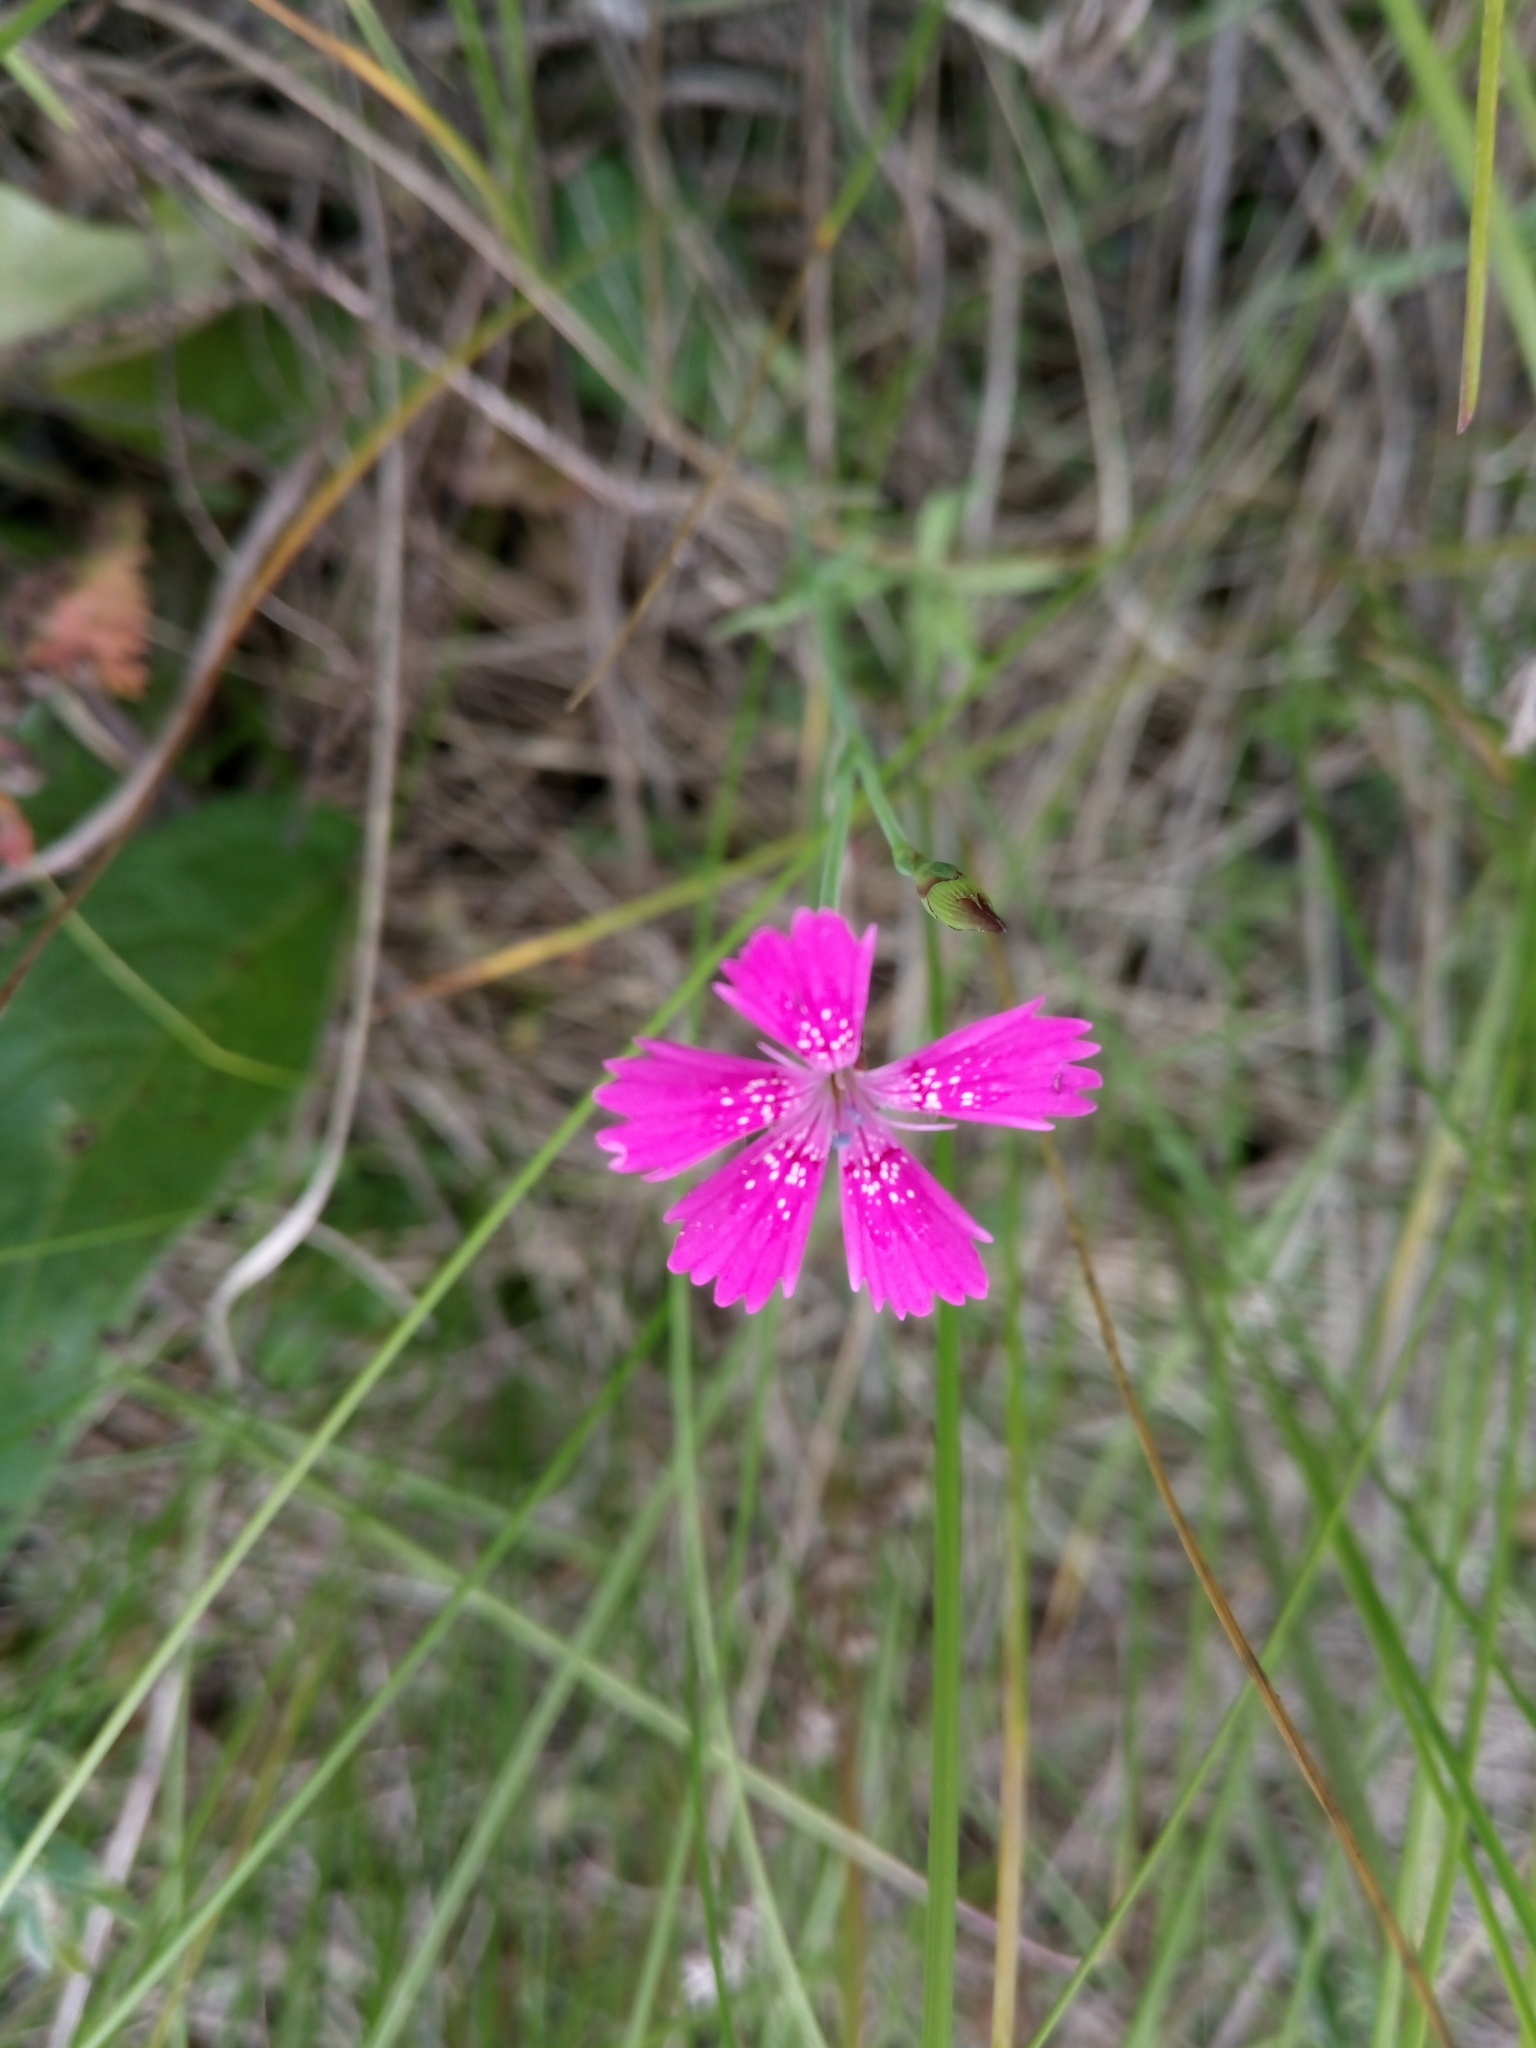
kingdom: Plantae
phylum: Tracheophyta
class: Magnoliopsida
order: Caryophyllales
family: Caryophyllaceae
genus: Dianthus
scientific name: Dianthus deltoides
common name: Maiden pink
